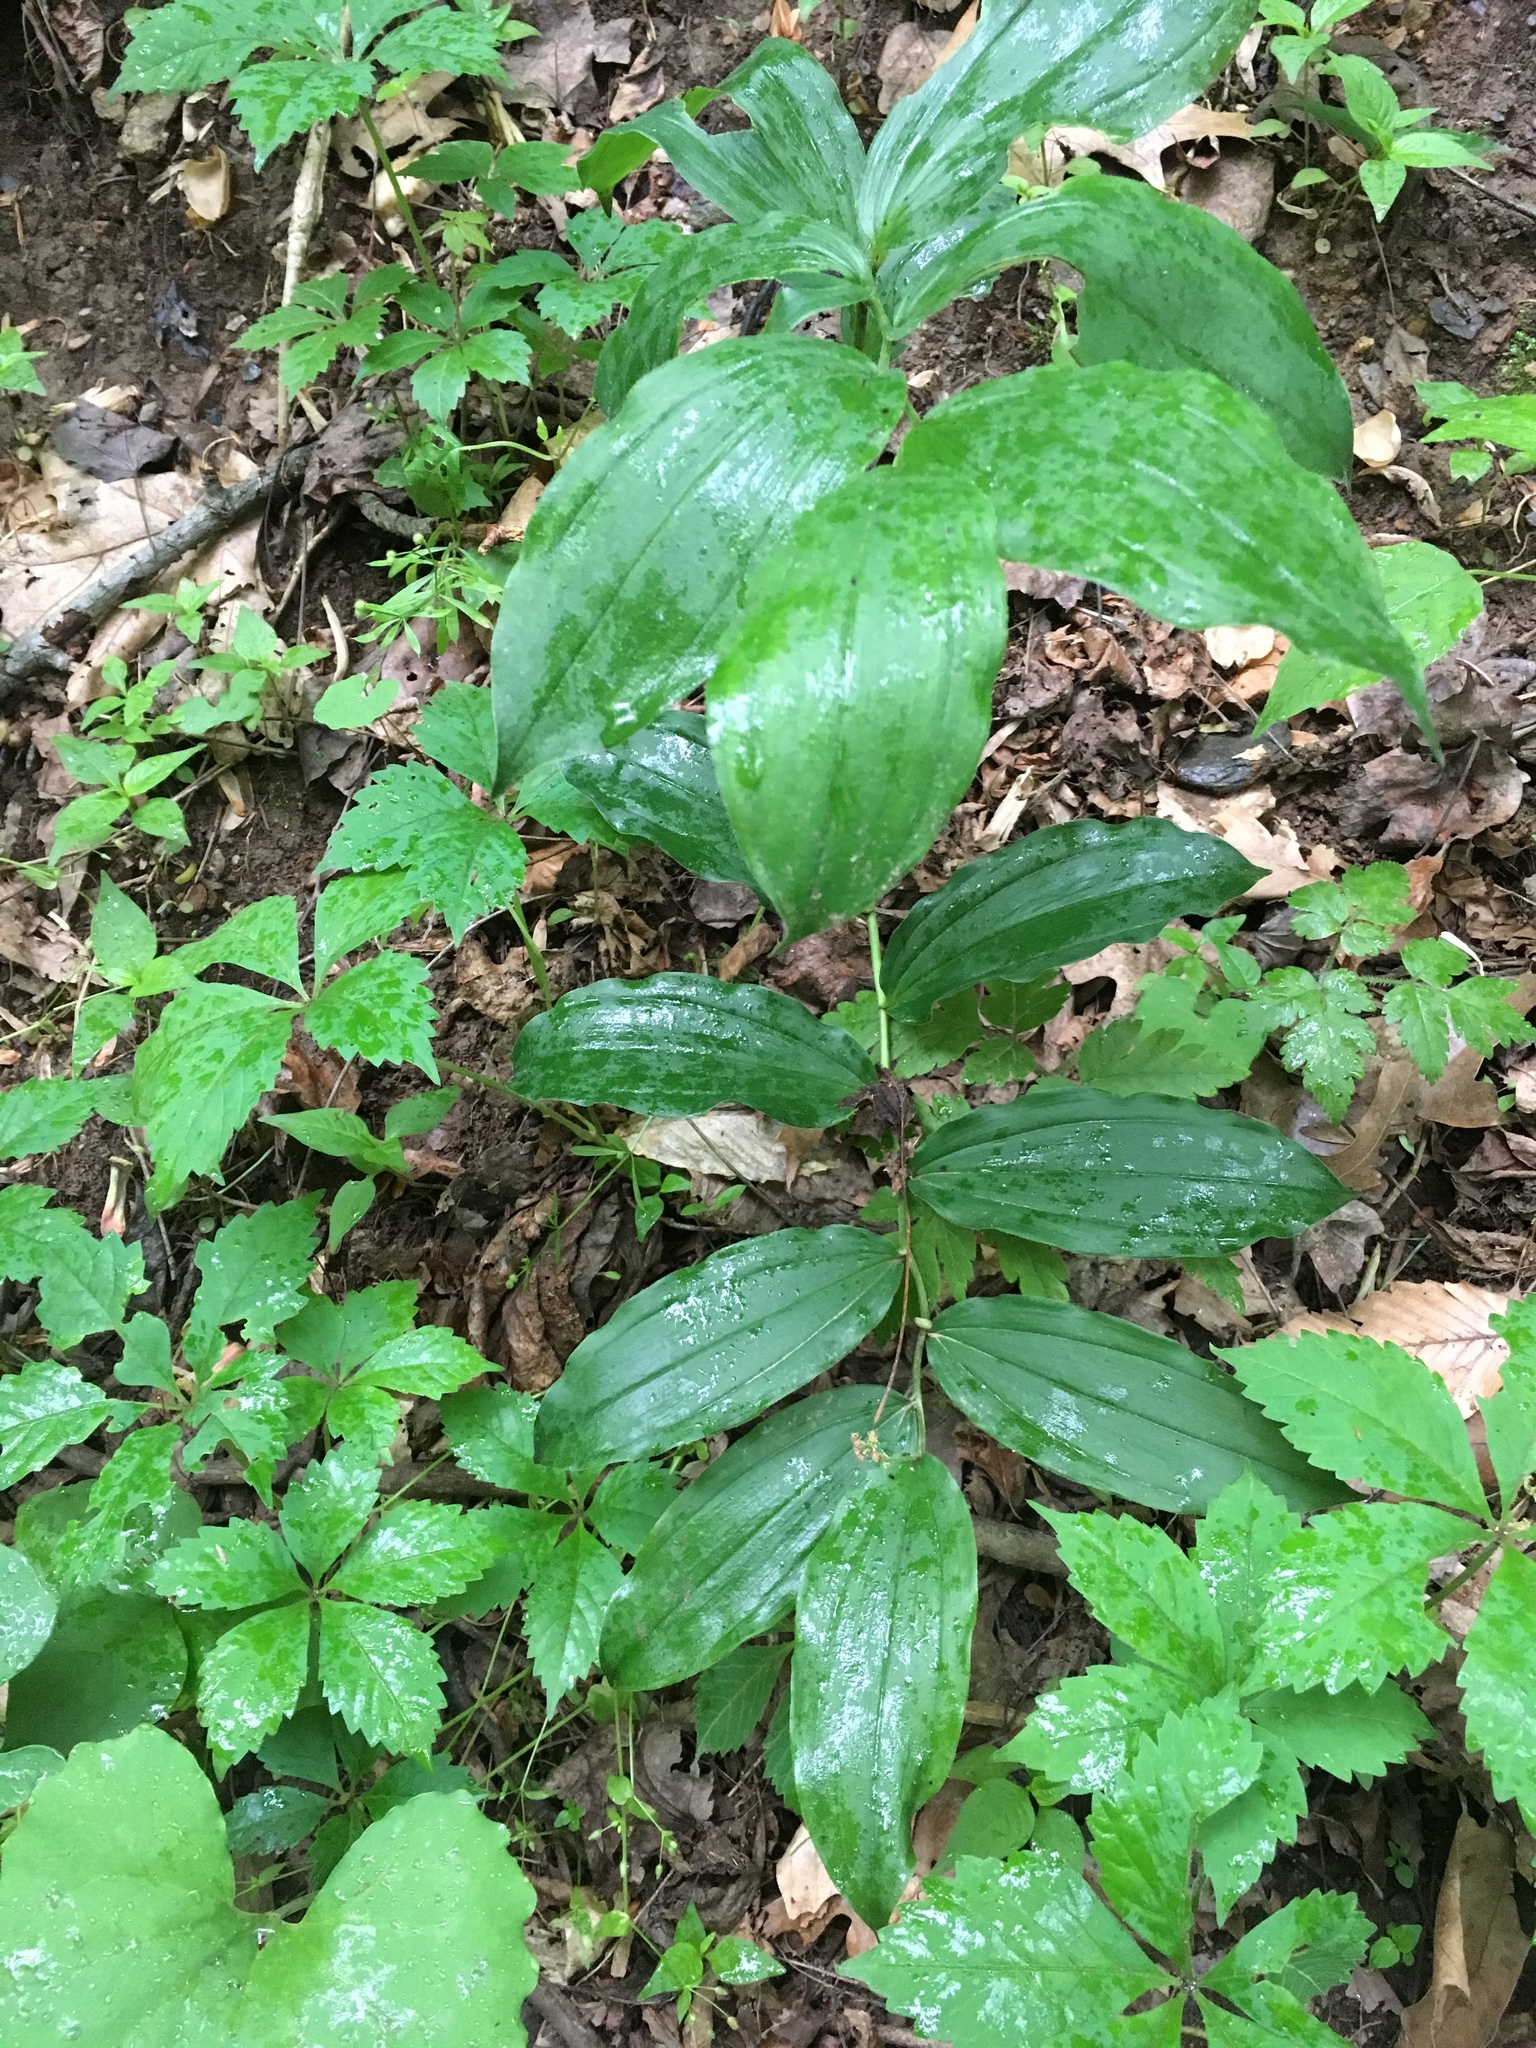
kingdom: Plantae
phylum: Tracheophyta
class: Liliopsida
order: Asparagales
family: Asparagaceae
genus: Maianthemum
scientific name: Maianthemum racemosum
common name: False spikenard
